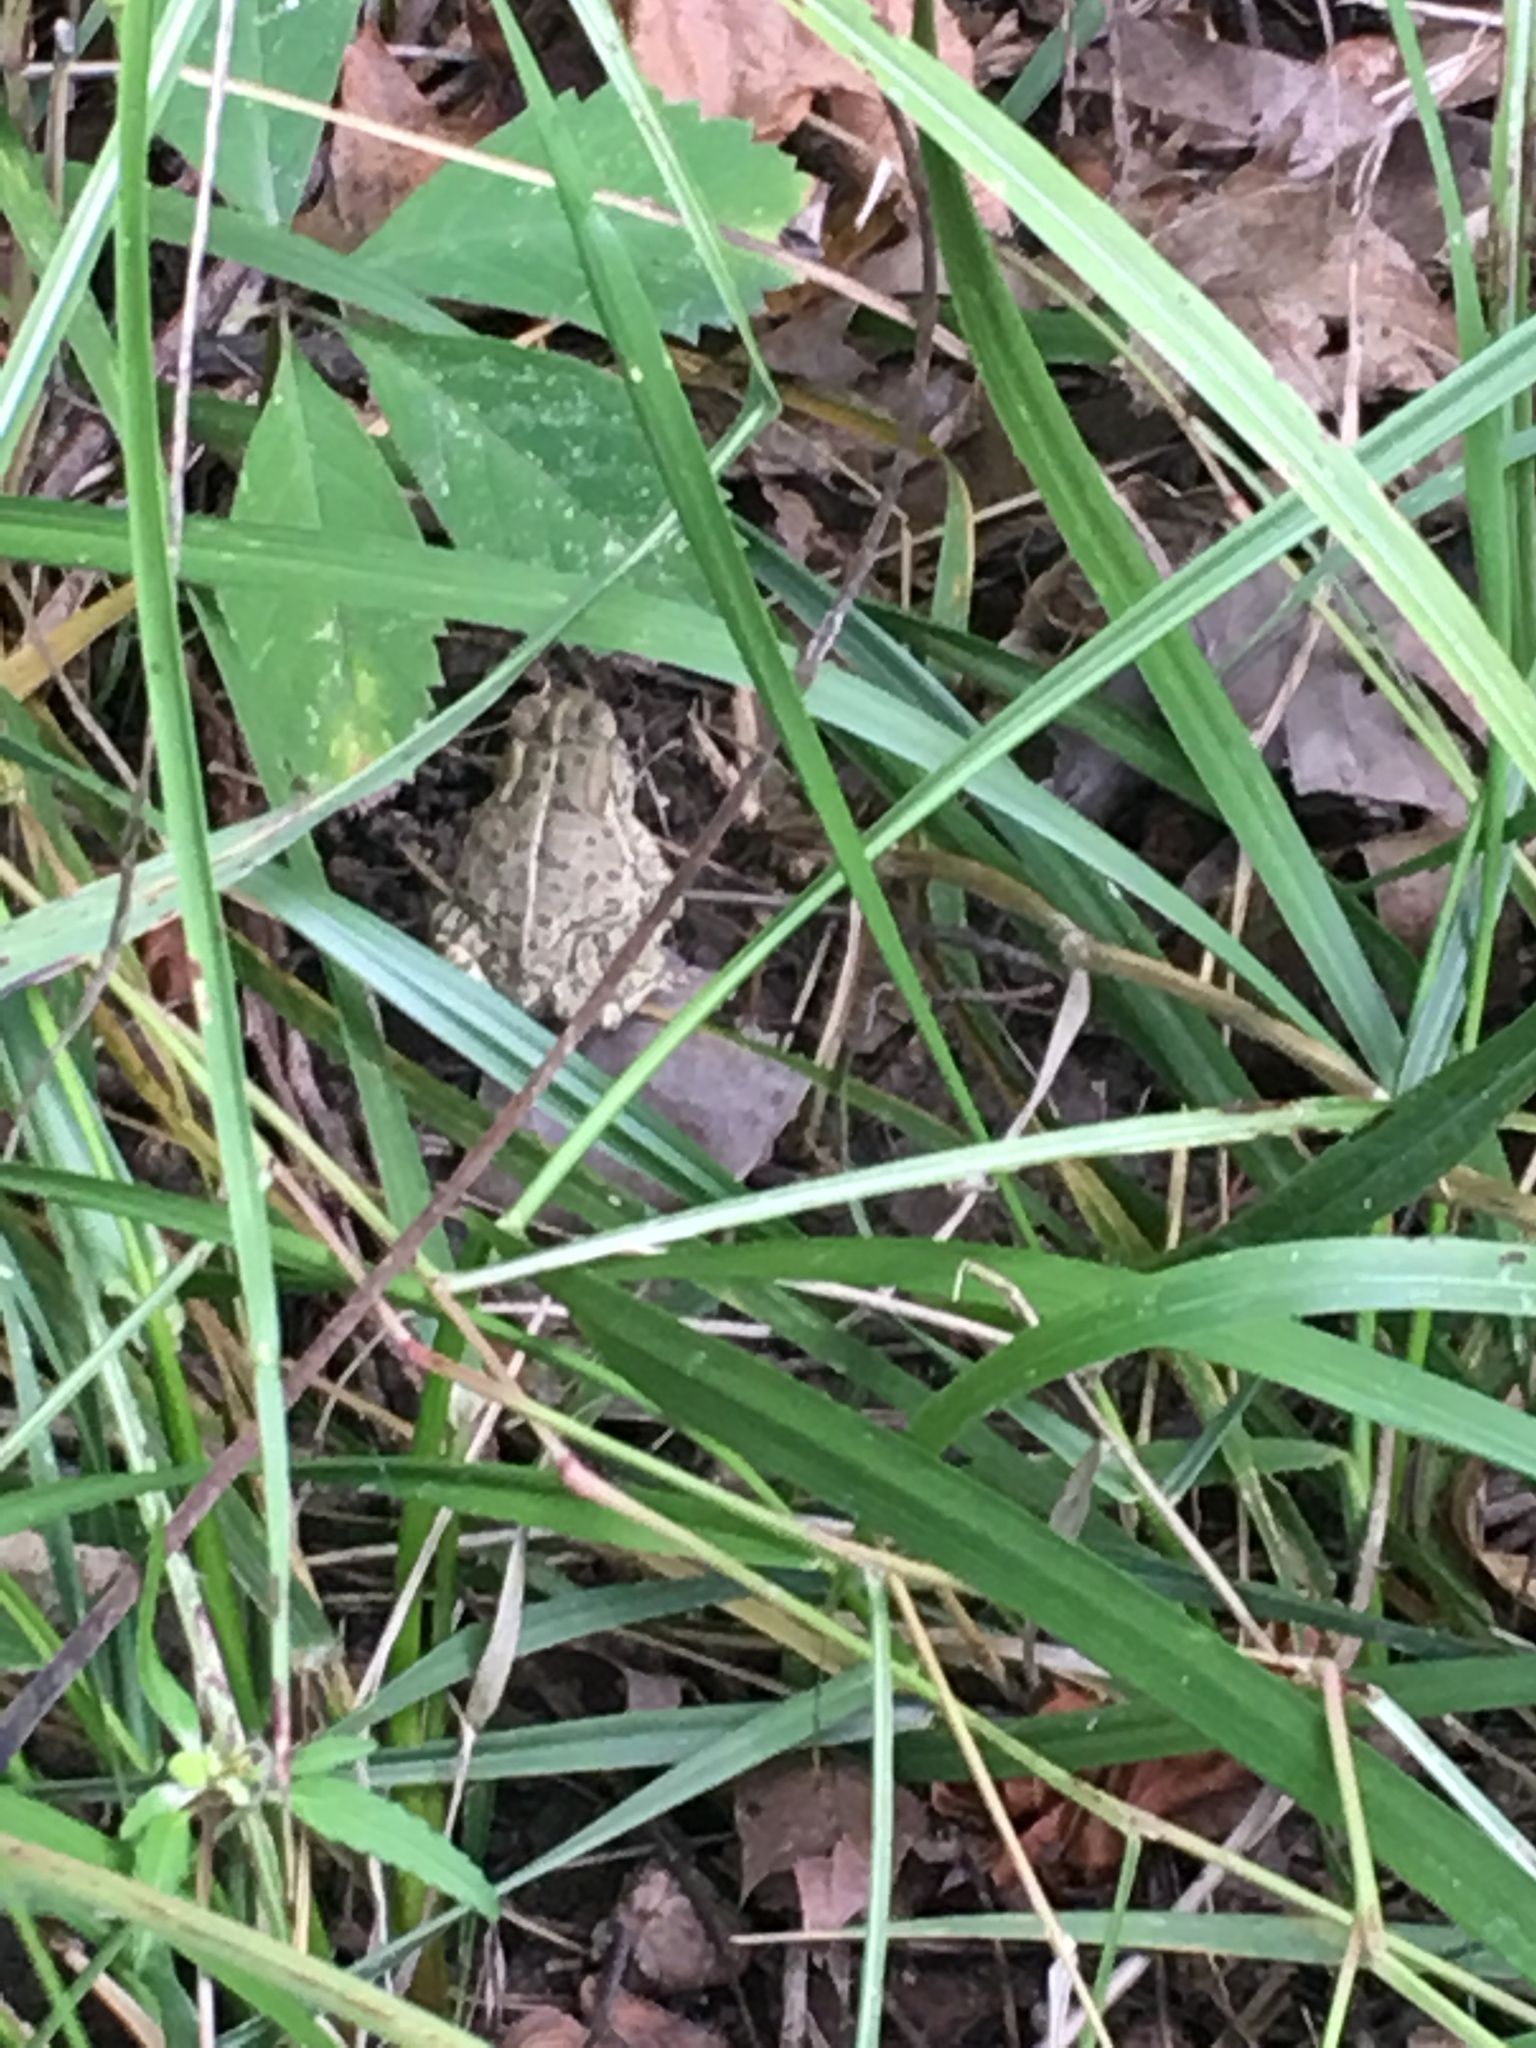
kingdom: Animalia
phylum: Chordata
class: Amphibia
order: Anura
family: Bufonidae
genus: Anaxyrus
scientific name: Anaxyrus woodhousii
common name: Woodhouse's toad
